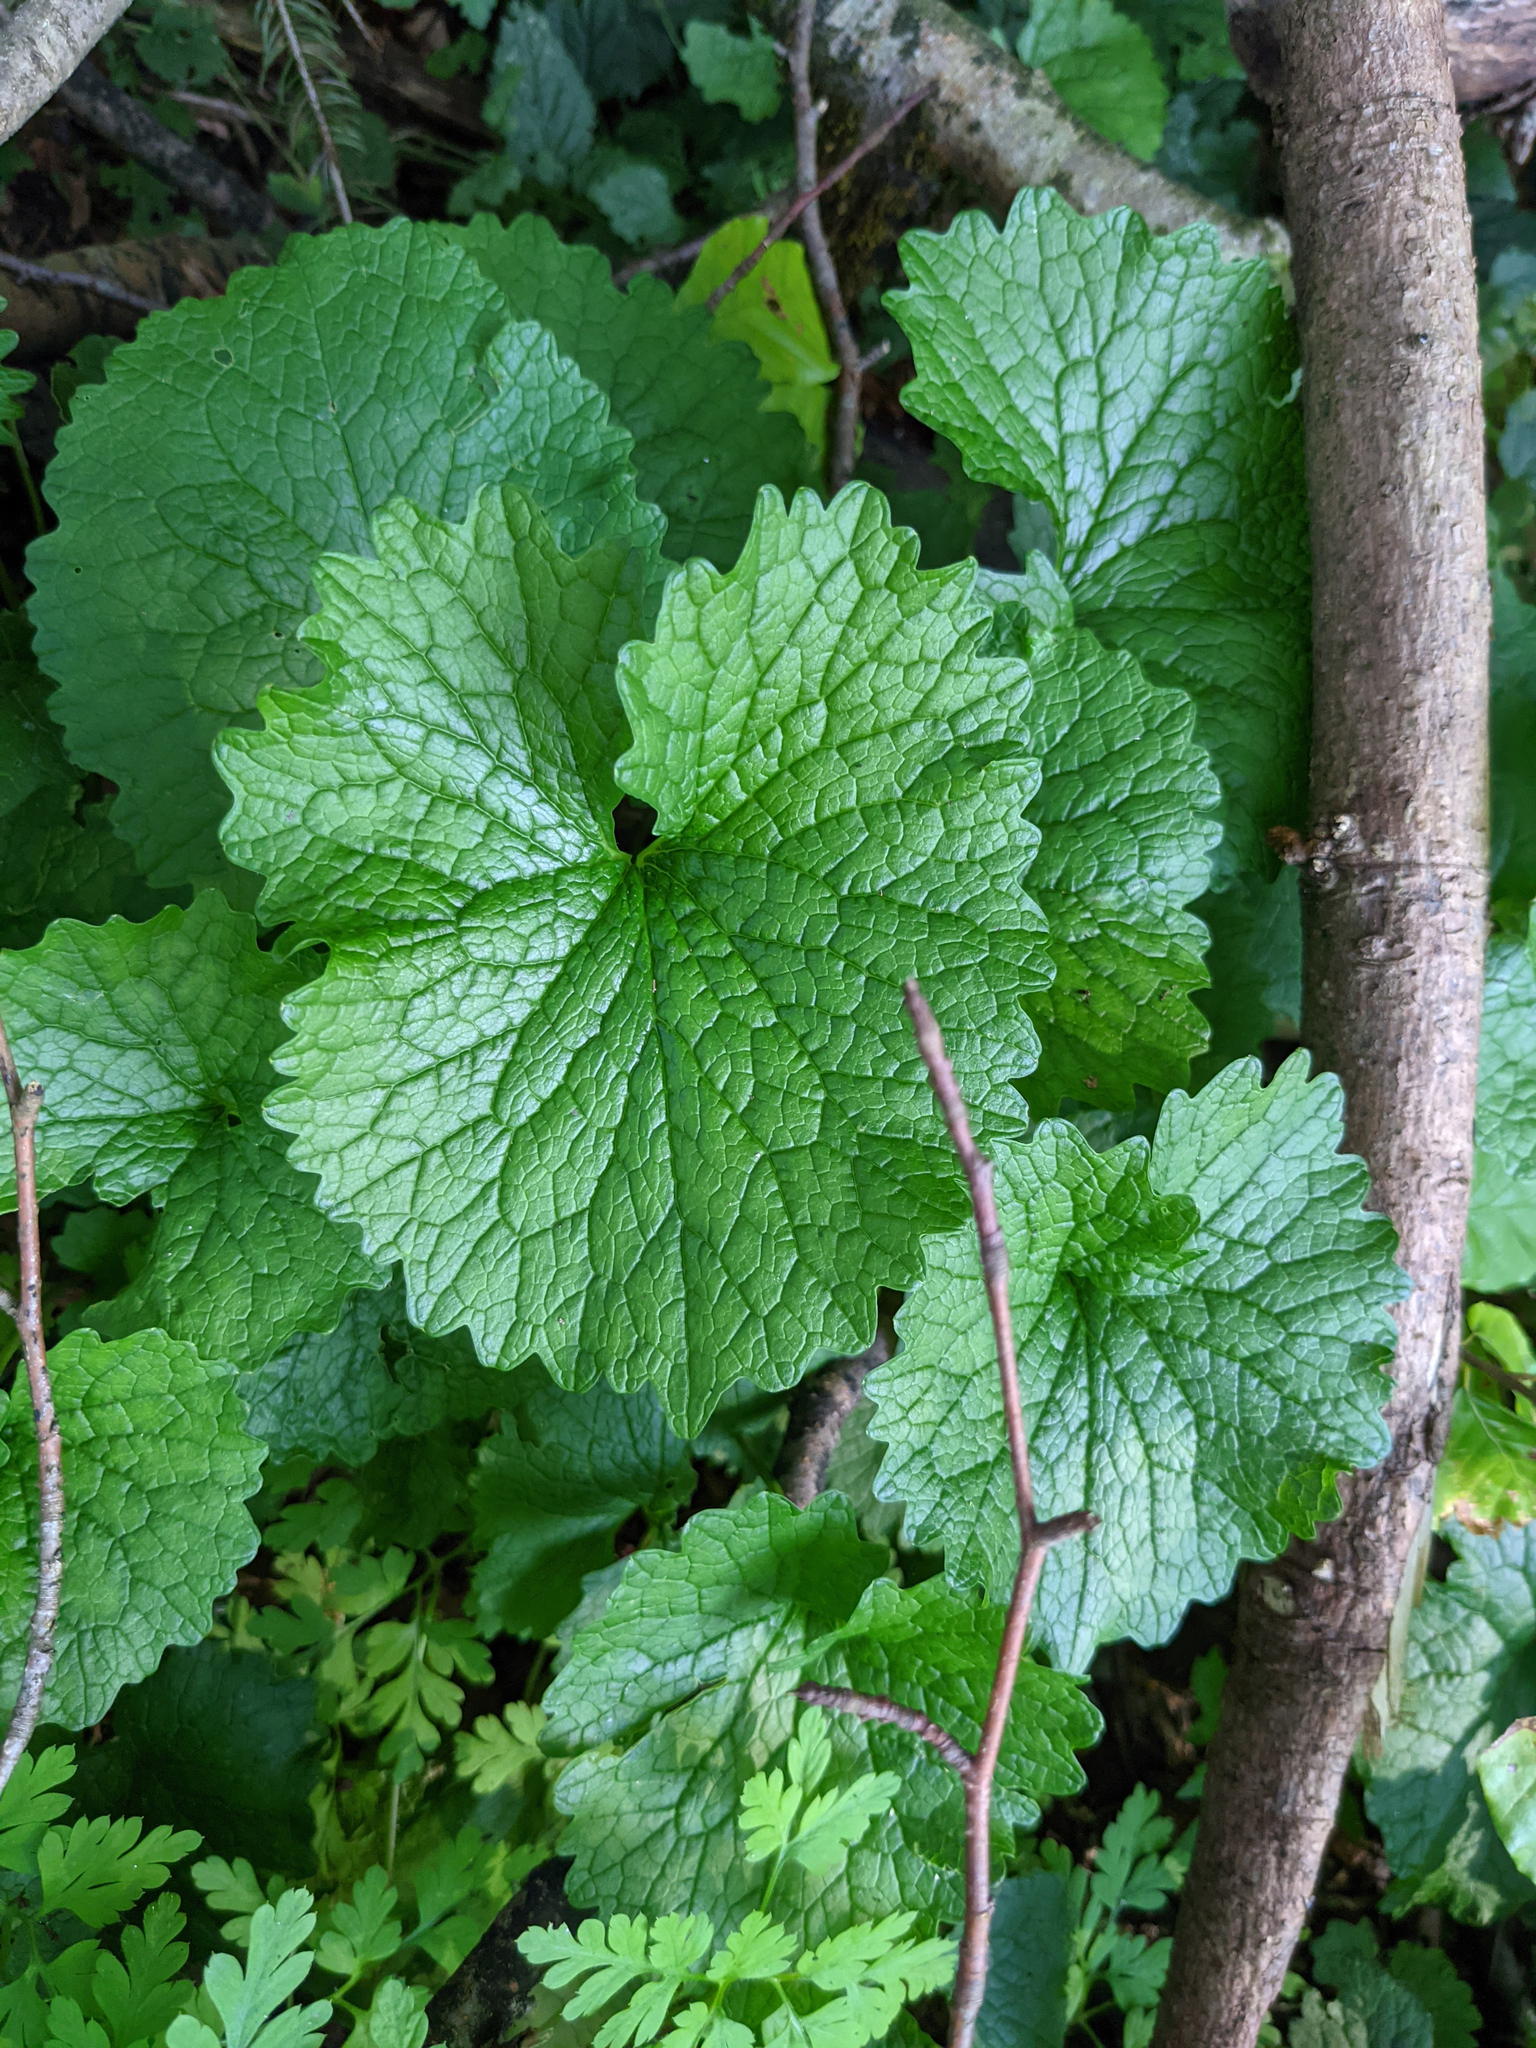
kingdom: Plantae
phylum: Tracheophyta
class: Magnoliopsida
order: Brassicales
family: Brassicaceae
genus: Alliaria
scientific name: Alliaria petiolata
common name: Garlic mustard
